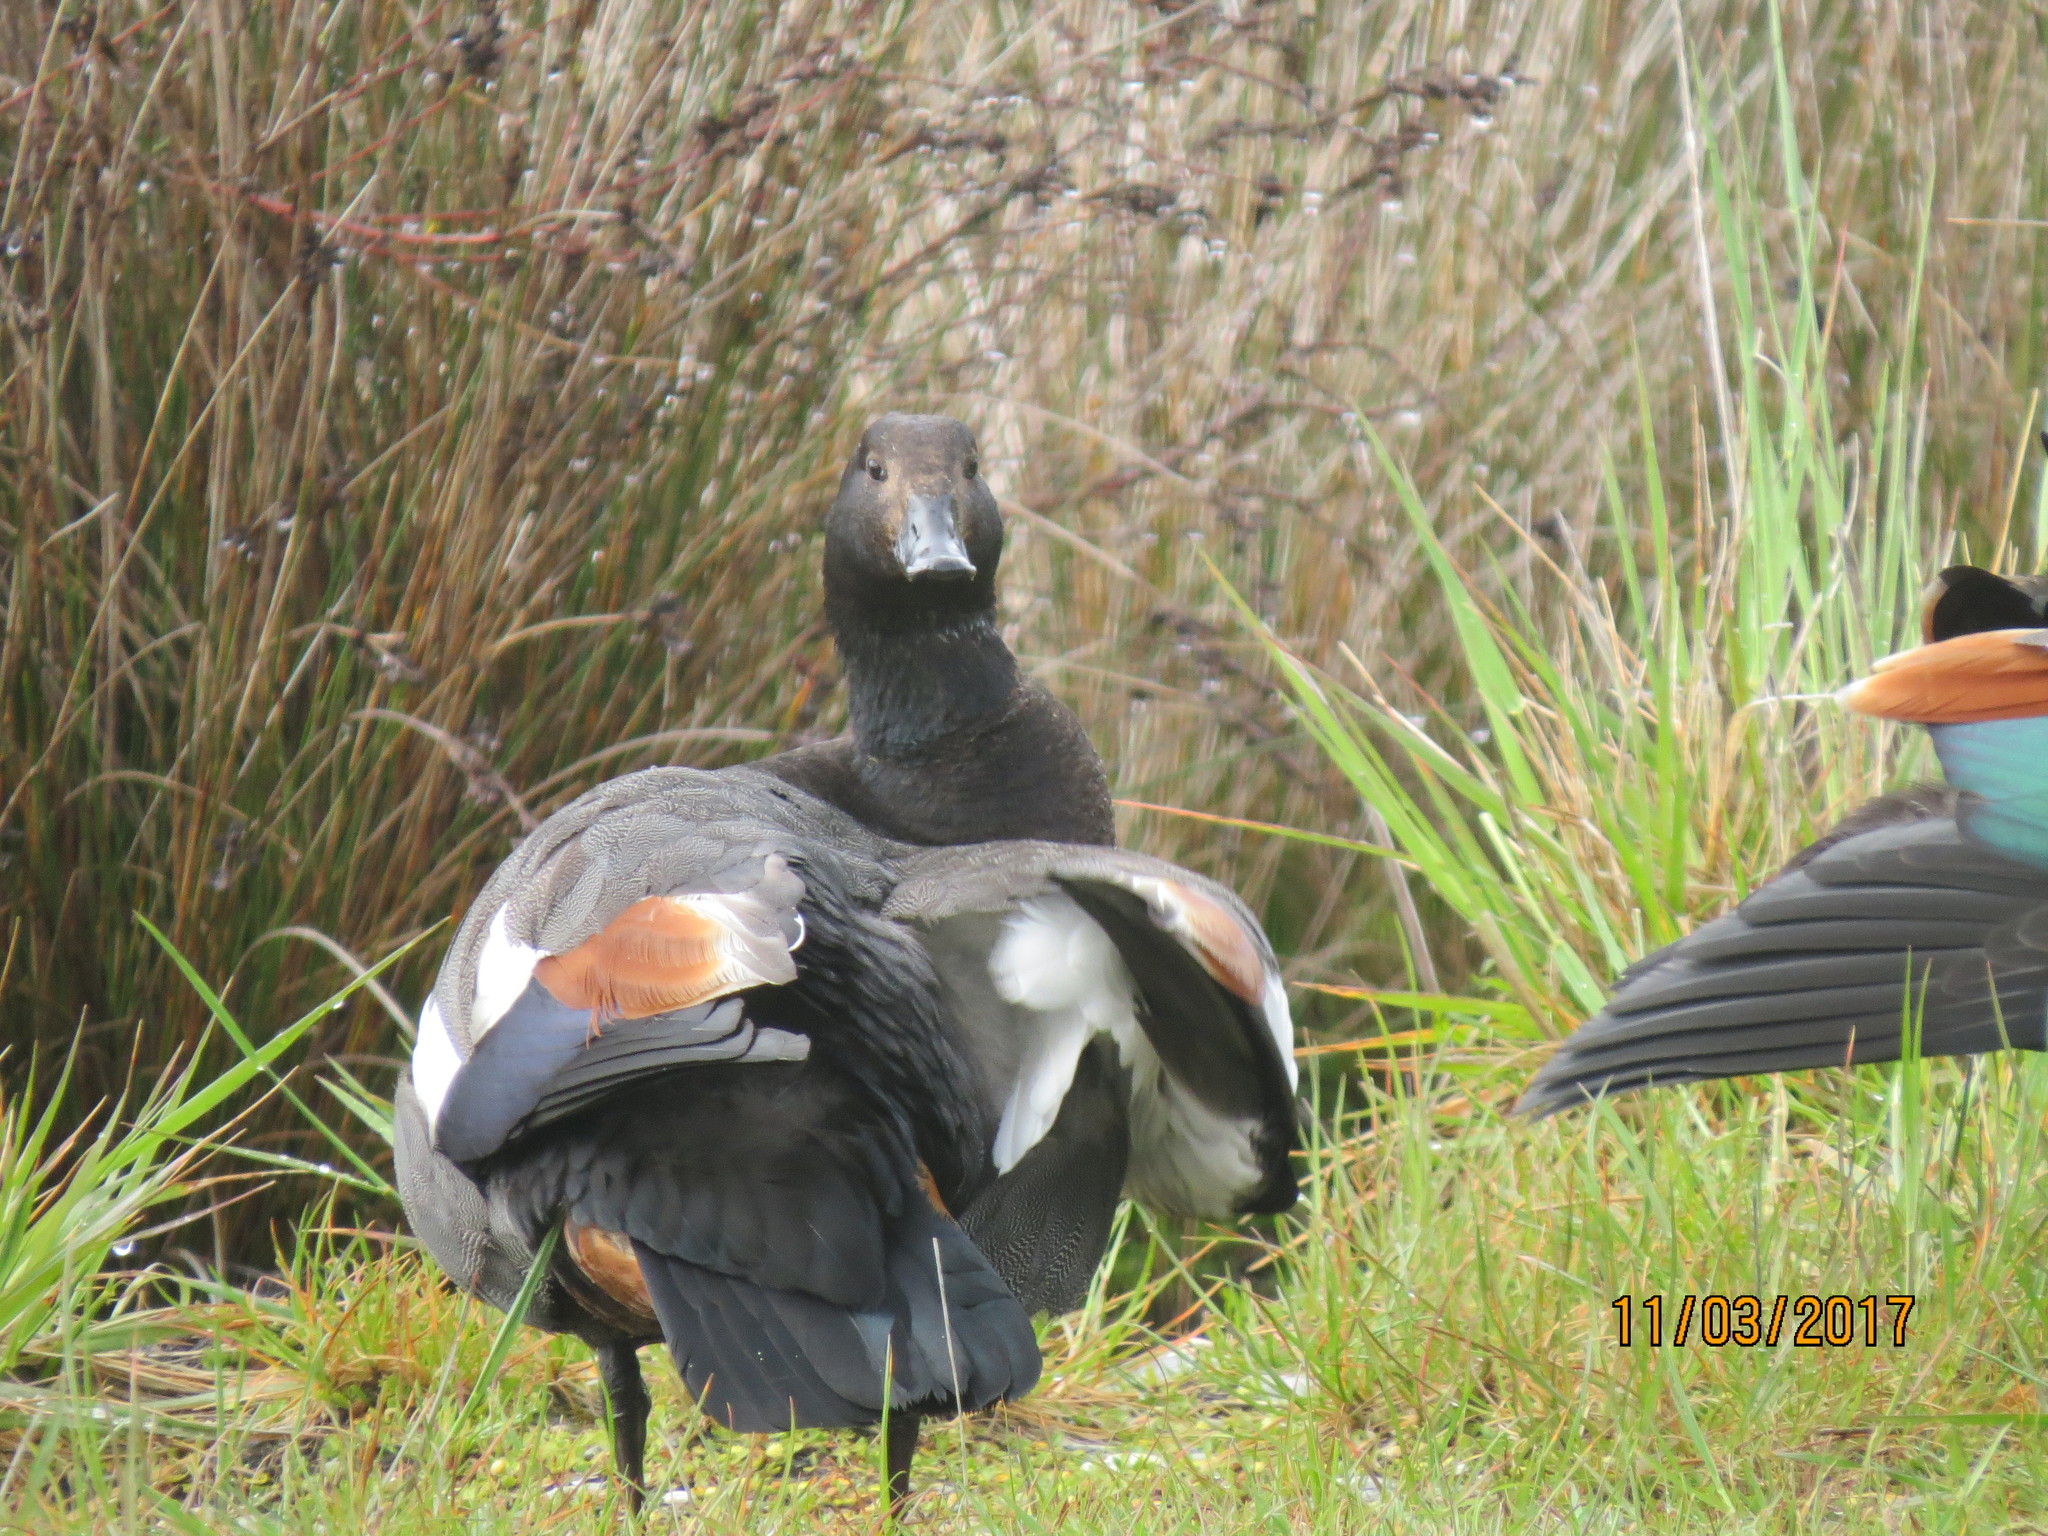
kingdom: Animalia
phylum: Chordata
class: Aves
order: Anseriformes
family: Anatidae
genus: Tadorna
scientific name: Tadorna variegata
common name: Paradise shelduck
